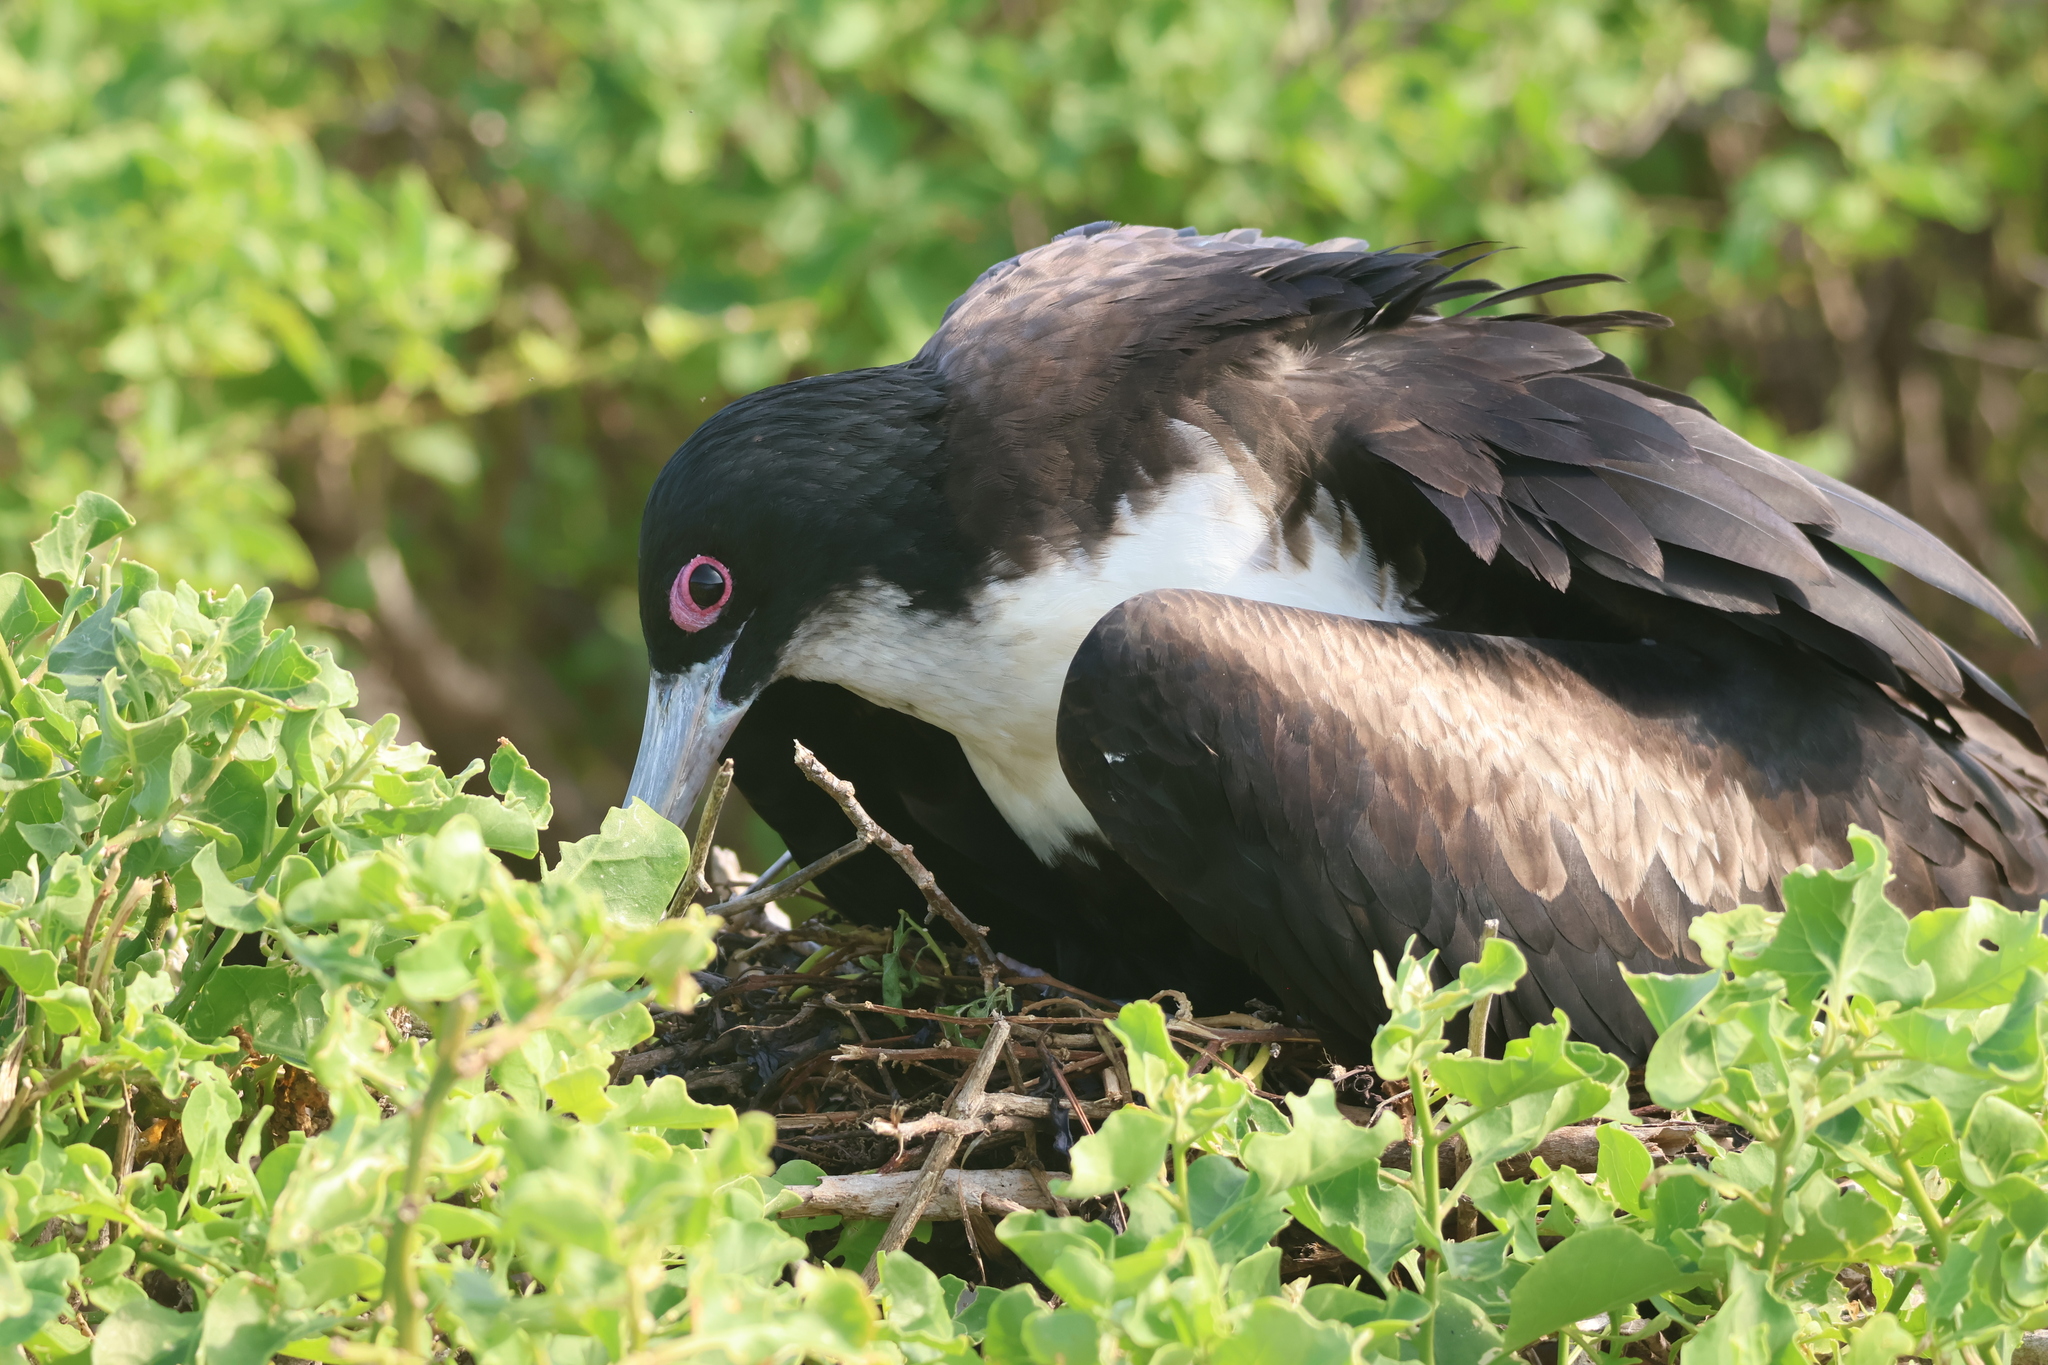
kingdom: Animalia
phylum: Chordata
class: Aves
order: Suliformes
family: Fregatidae
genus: Fregata
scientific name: Fregata minor
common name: Great frigatebird
